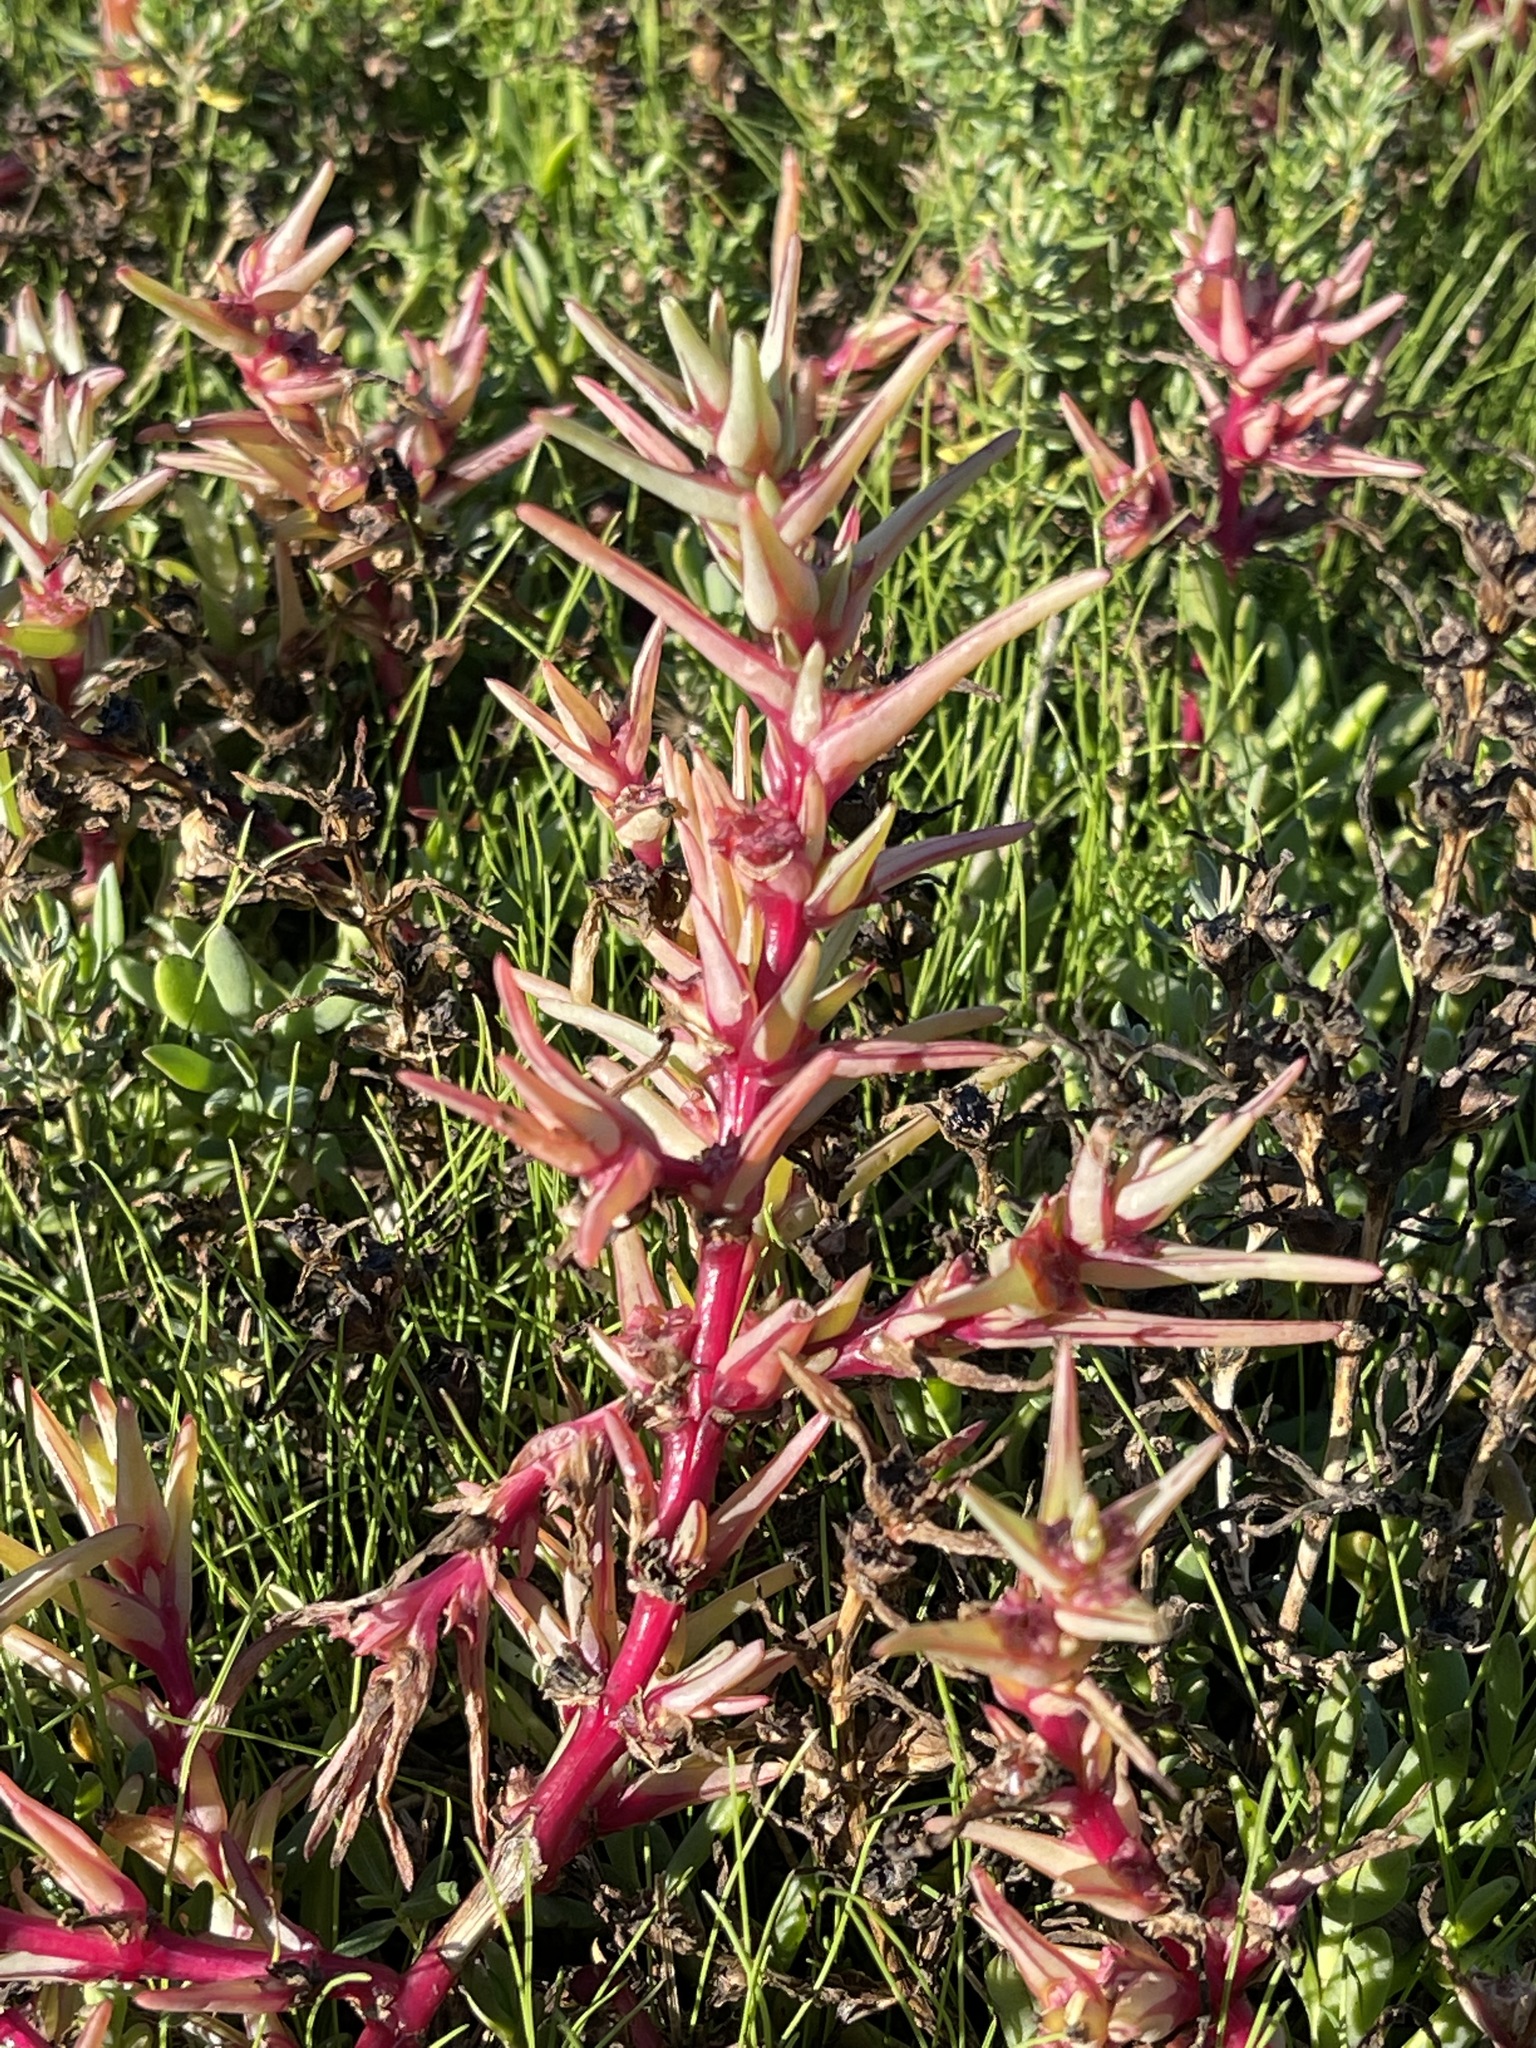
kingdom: Plantae
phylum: Tracheophyta
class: Magnoliopsida
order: Caryophyllales
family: Amaranthaceae
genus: Salsola
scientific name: Salsola soda
